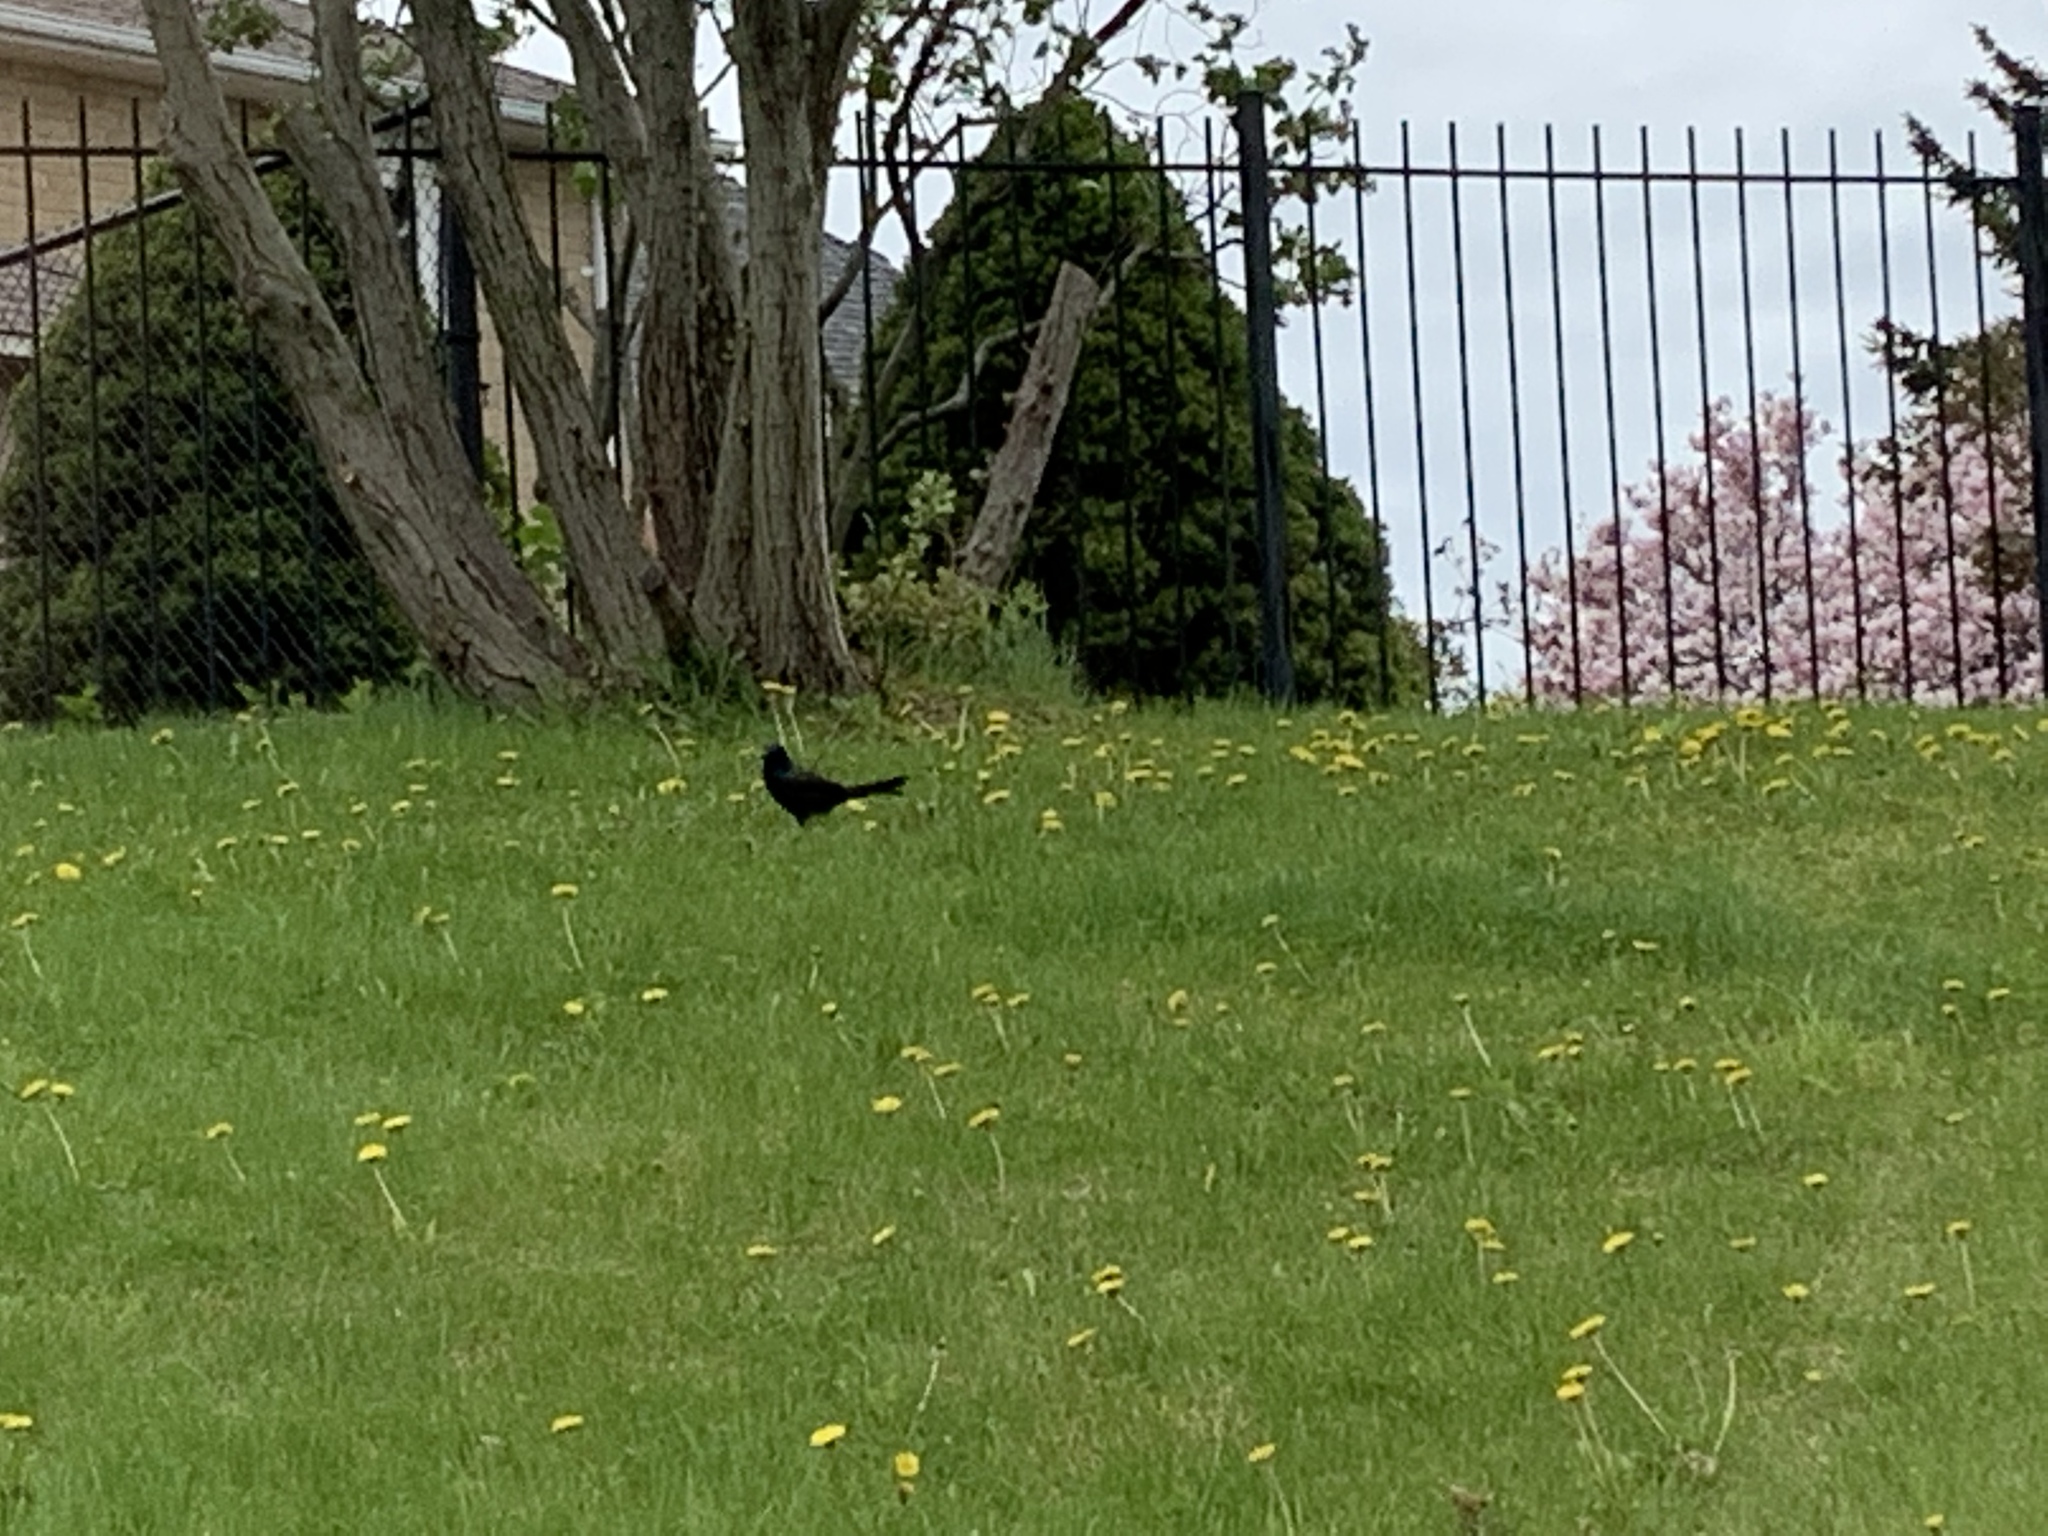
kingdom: Animalia
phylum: Chordata
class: Aves
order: Passeriformes
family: Icteridae
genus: Quiscalus
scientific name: Quiscalus quiscula
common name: Common grackle
